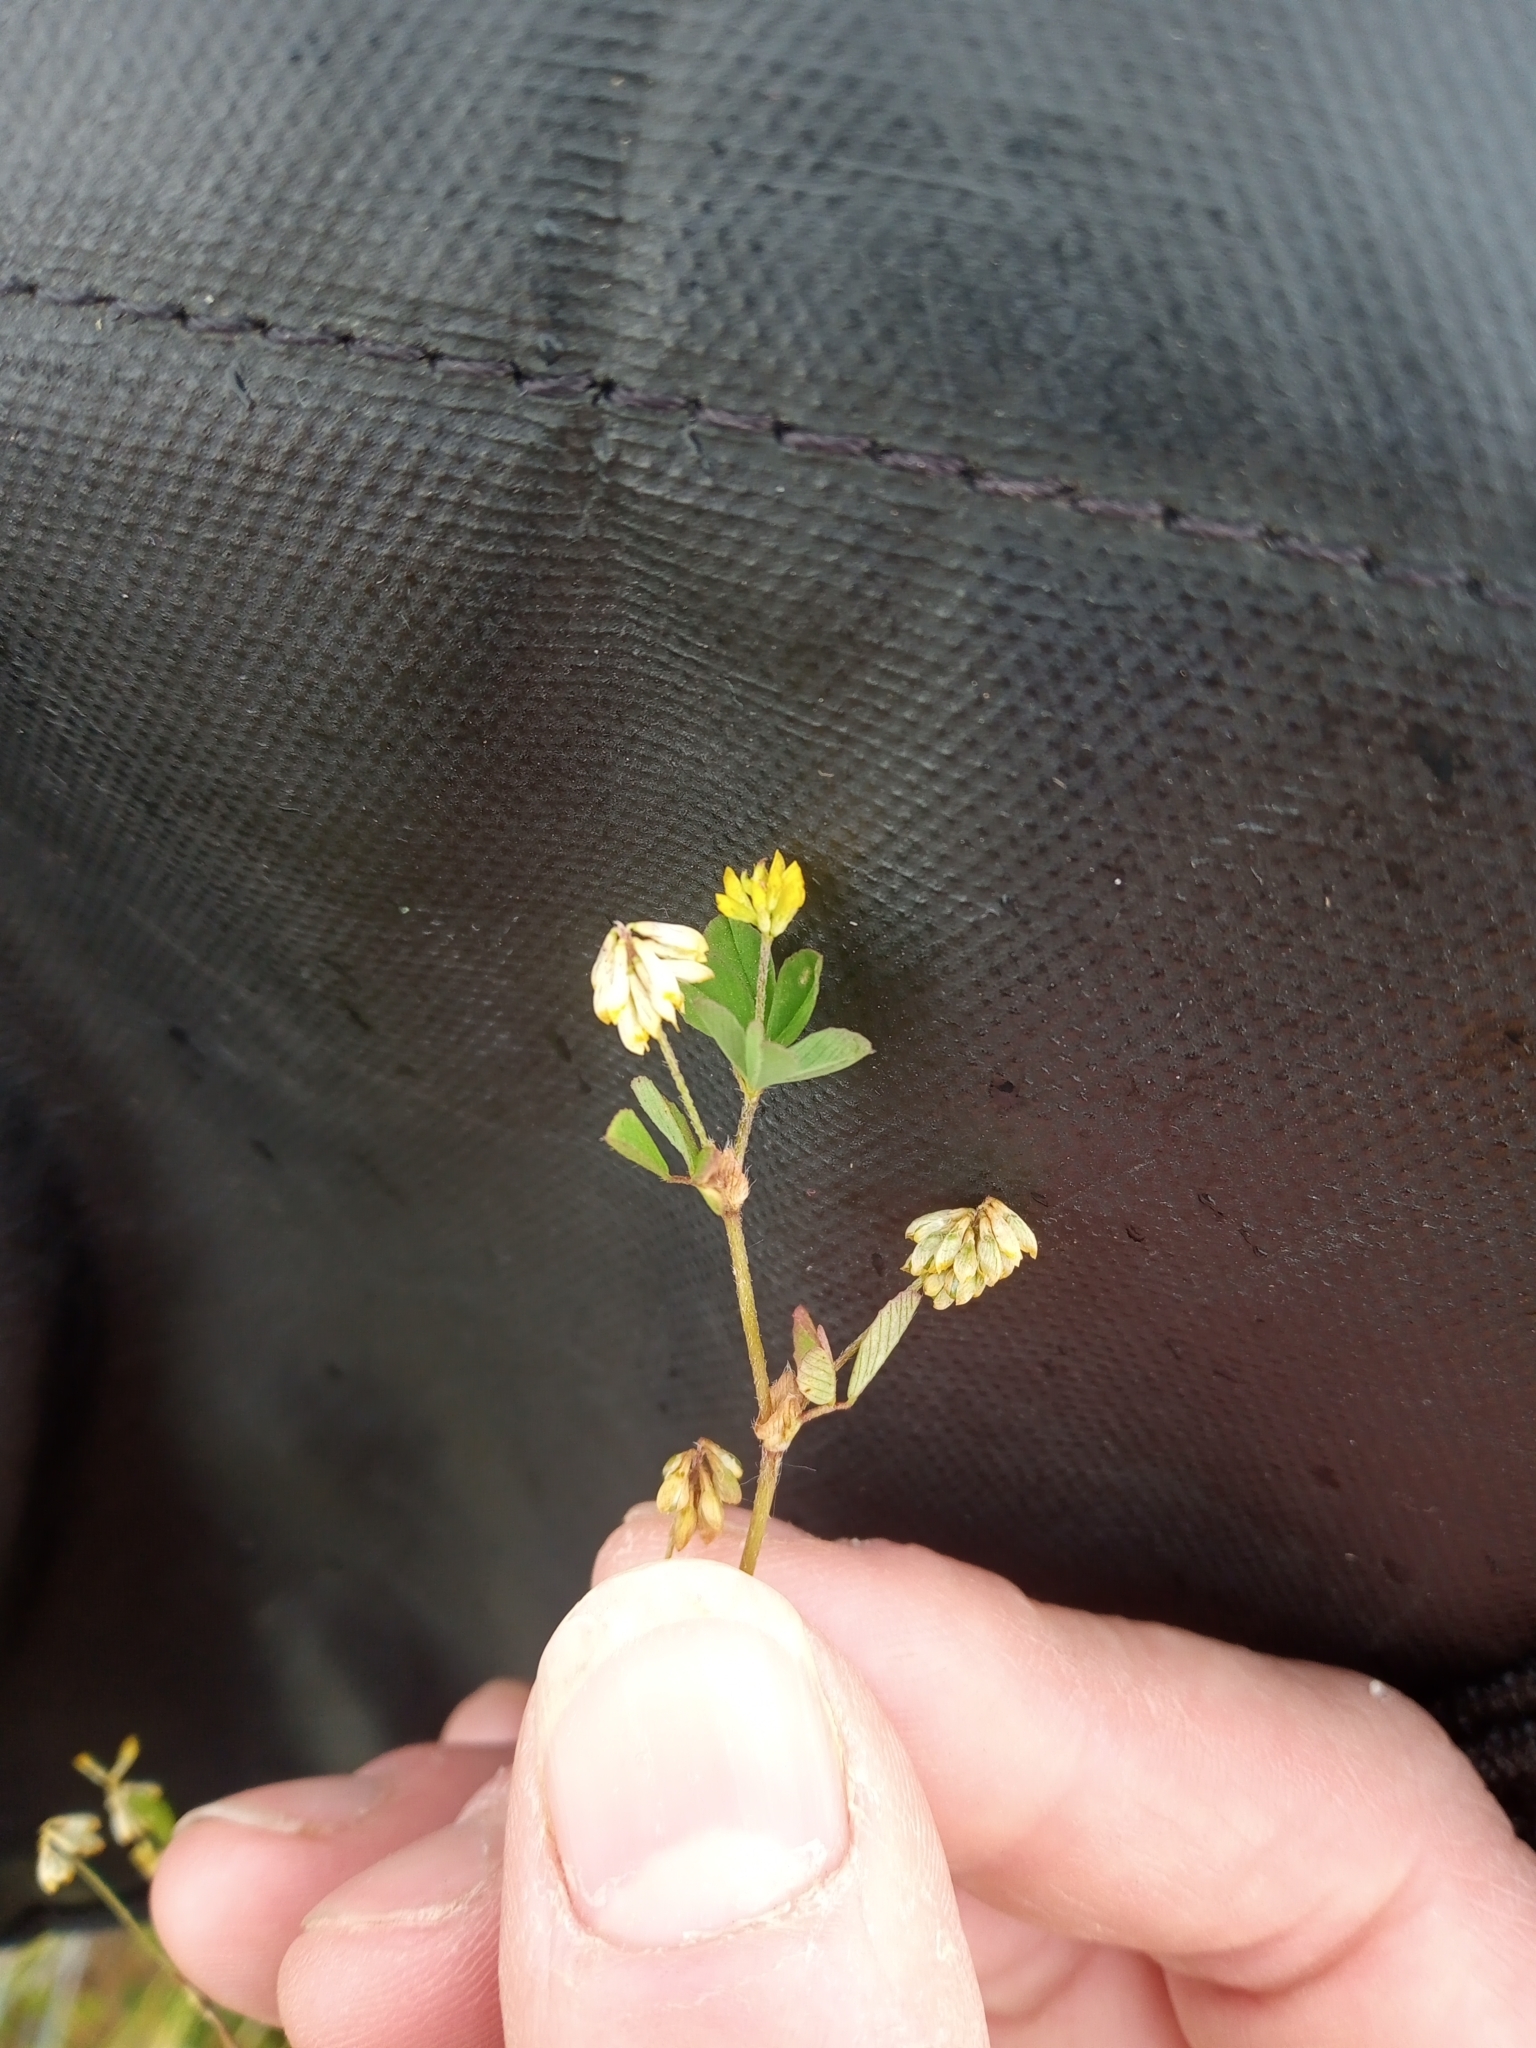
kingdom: Plantae
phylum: Tracheophyta
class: Magnoliopsida
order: Fabales
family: Fabaceae
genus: Trifolium
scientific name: Trifolium dubium
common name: Suckling clover
